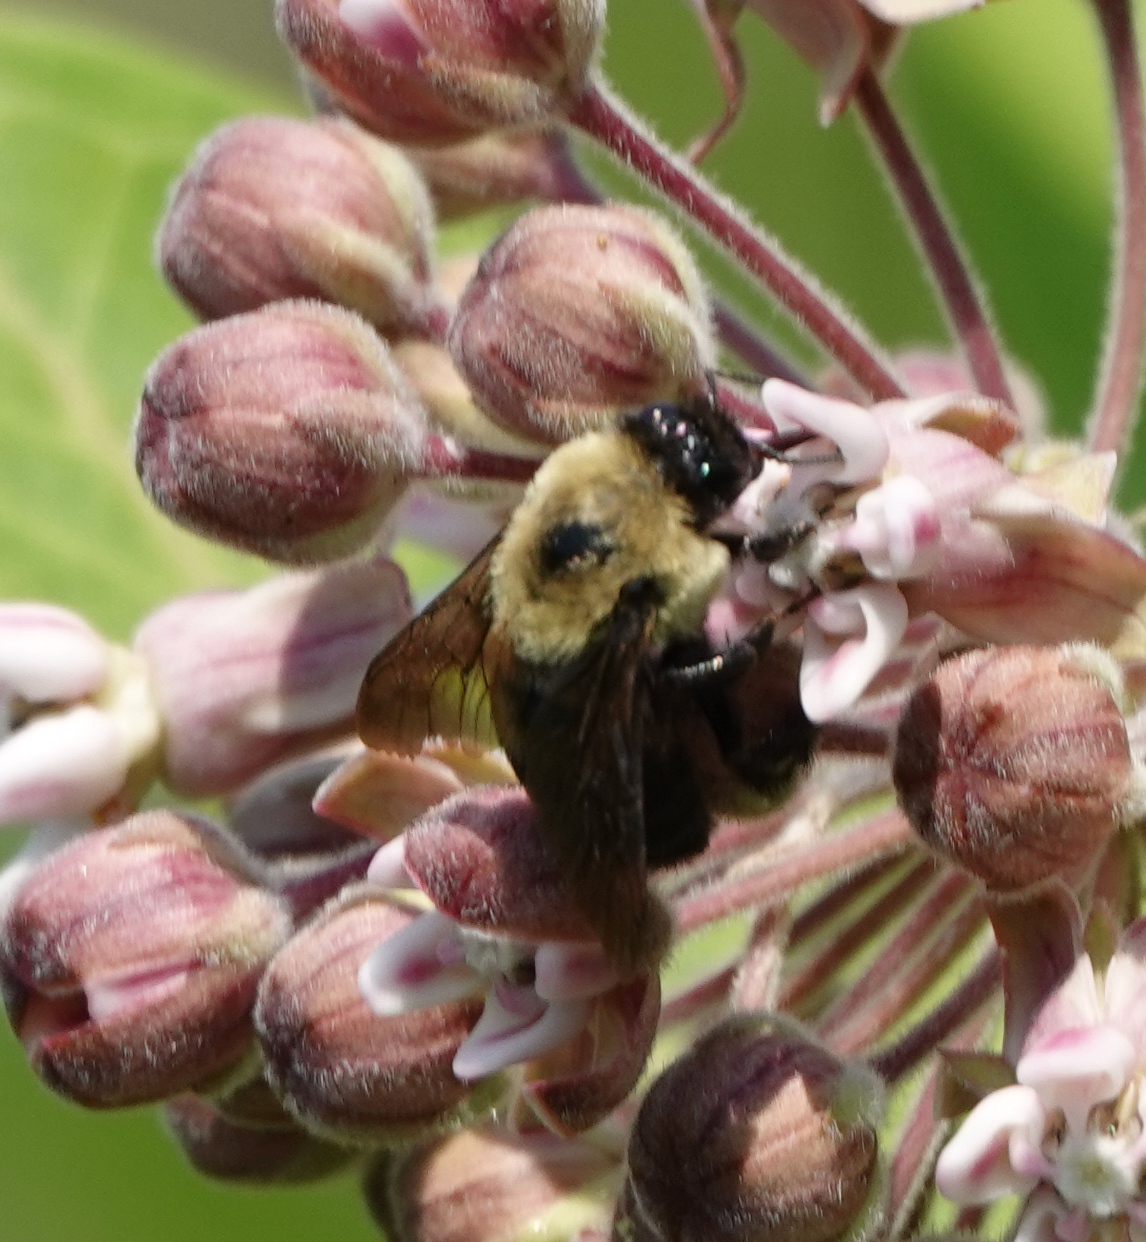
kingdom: Animalia
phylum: Arthropoda
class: Insecta
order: Hymenoptera
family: Apidae
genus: Bombus
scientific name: Bombus griseocollis
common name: Brown-belted bumble bee
